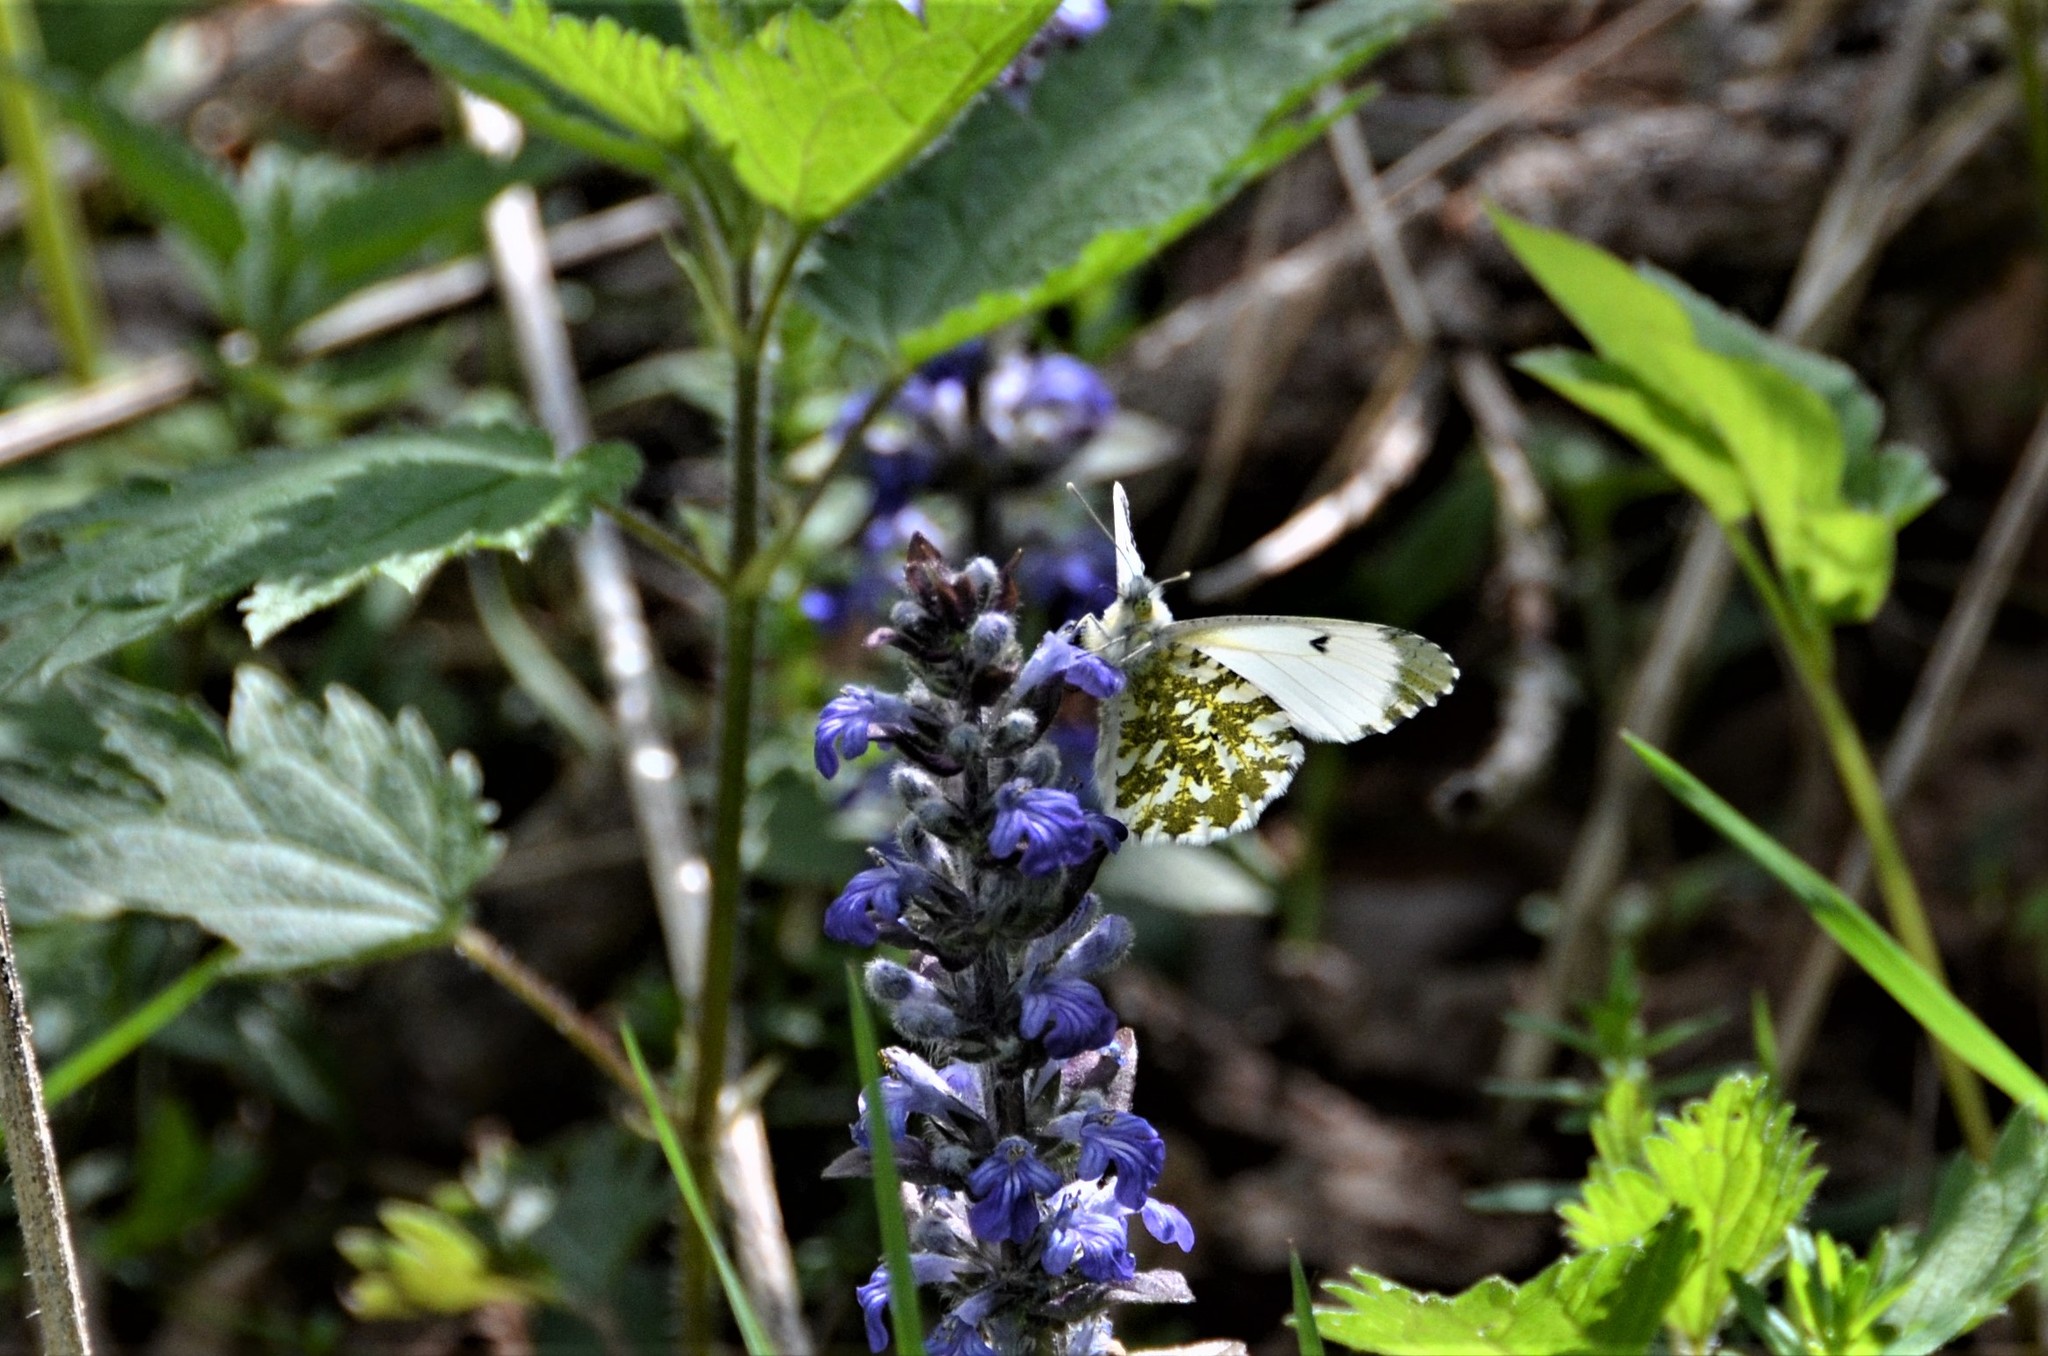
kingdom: Animalia
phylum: Arthropoda
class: Insecta
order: Lepidoptera
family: Pieridae
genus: Anthocharis
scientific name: Anthocharis cardamines
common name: Orange-tip
